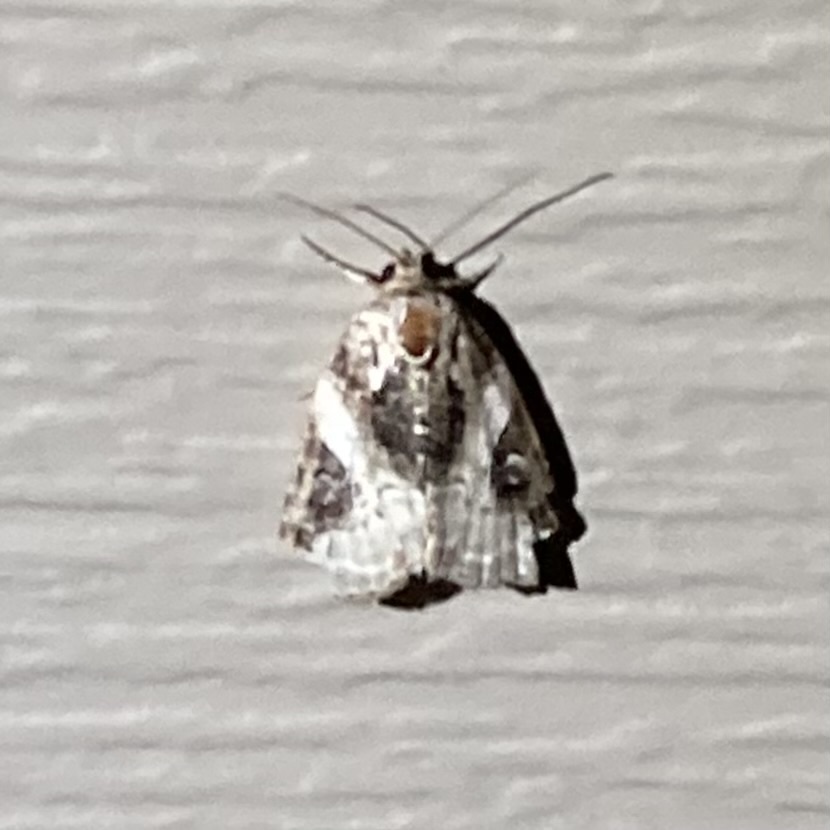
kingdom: Animalia
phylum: Arthropoda
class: Insecta
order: Lepidoptera
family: Noctuidae
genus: Pseudeustrotia
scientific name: Pseudeustrotia carneola
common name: Pink-barred lithacodia moth
